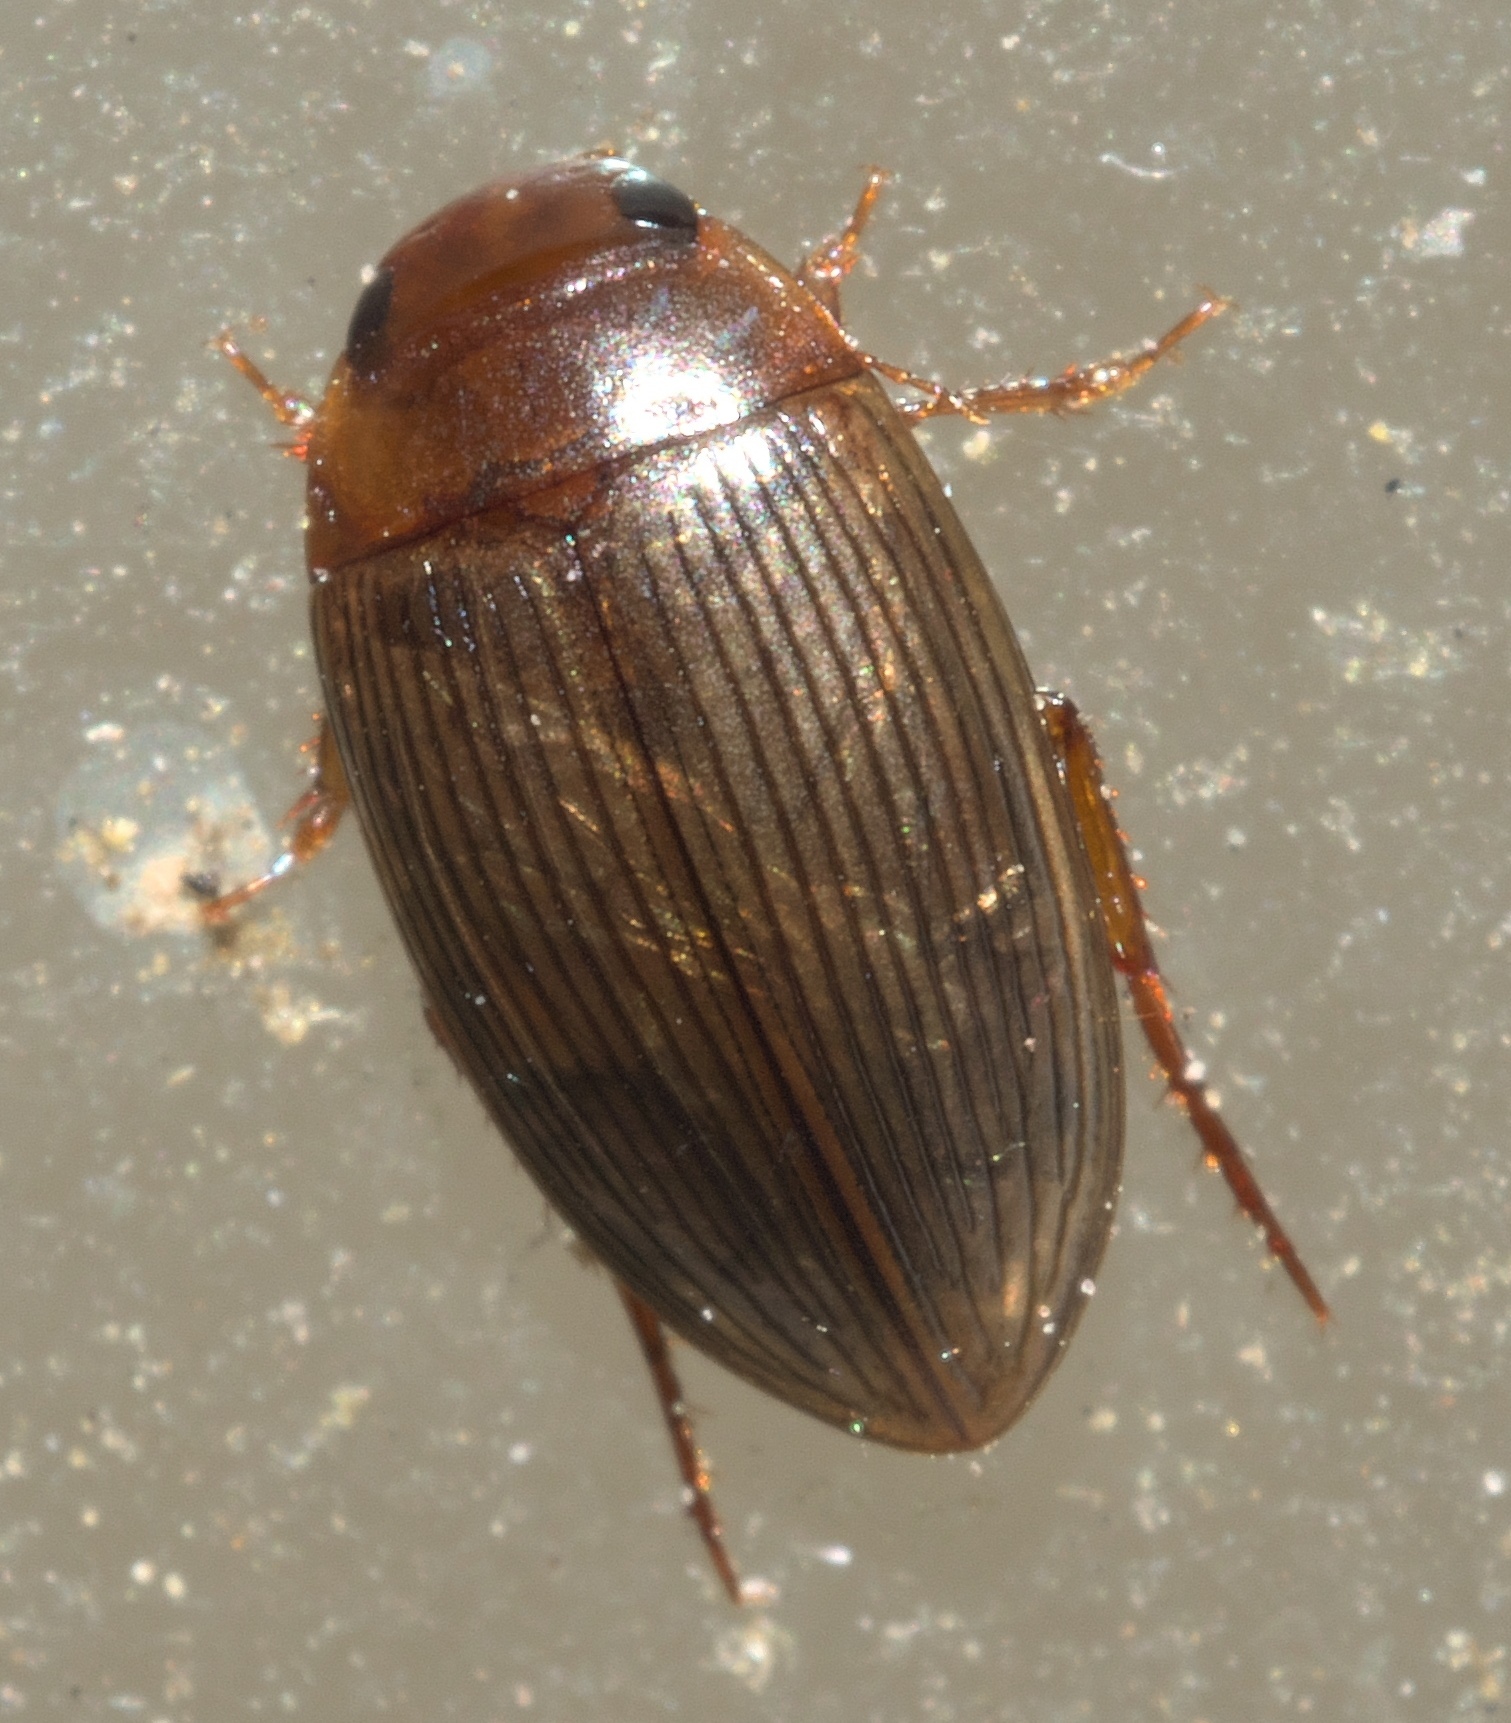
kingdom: Animalia
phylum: Arthropoda
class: Insecta
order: Coleoptera
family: Dytiscidae
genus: Copelatus
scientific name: Copelatus glyphicus
